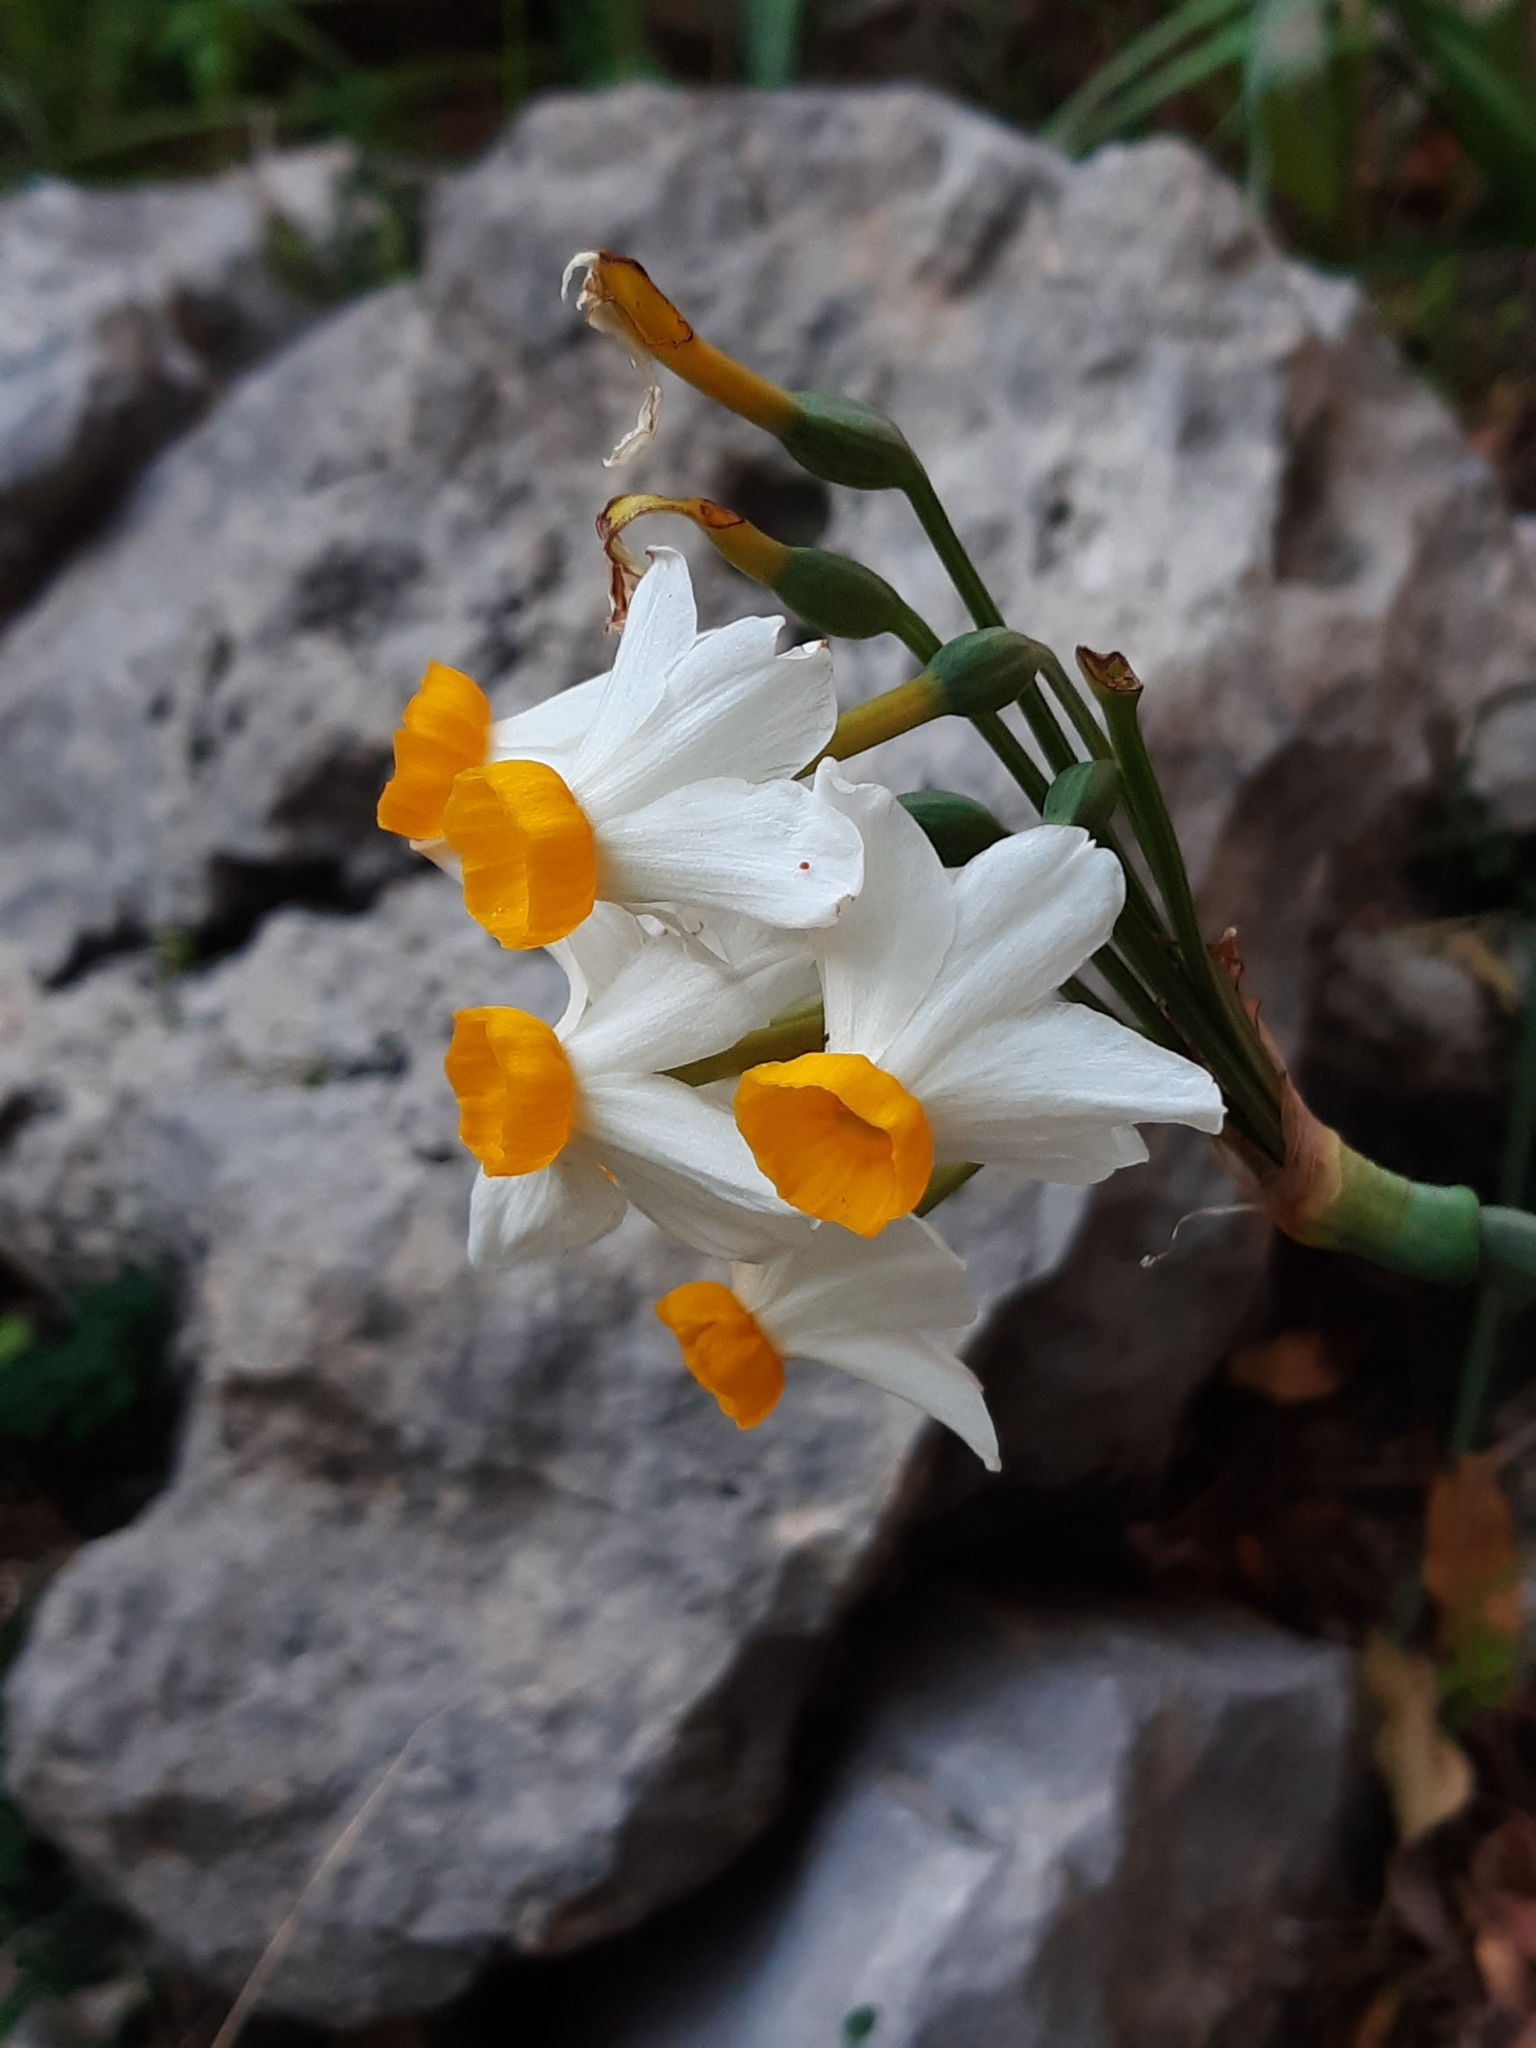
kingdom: Plantae
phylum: Tracheophyta
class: Liliopsida
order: Asparagales
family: Amaryllidaceae
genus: Narcissus
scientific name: Narcissus tazetta
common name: Bunch-flowered daffodil
